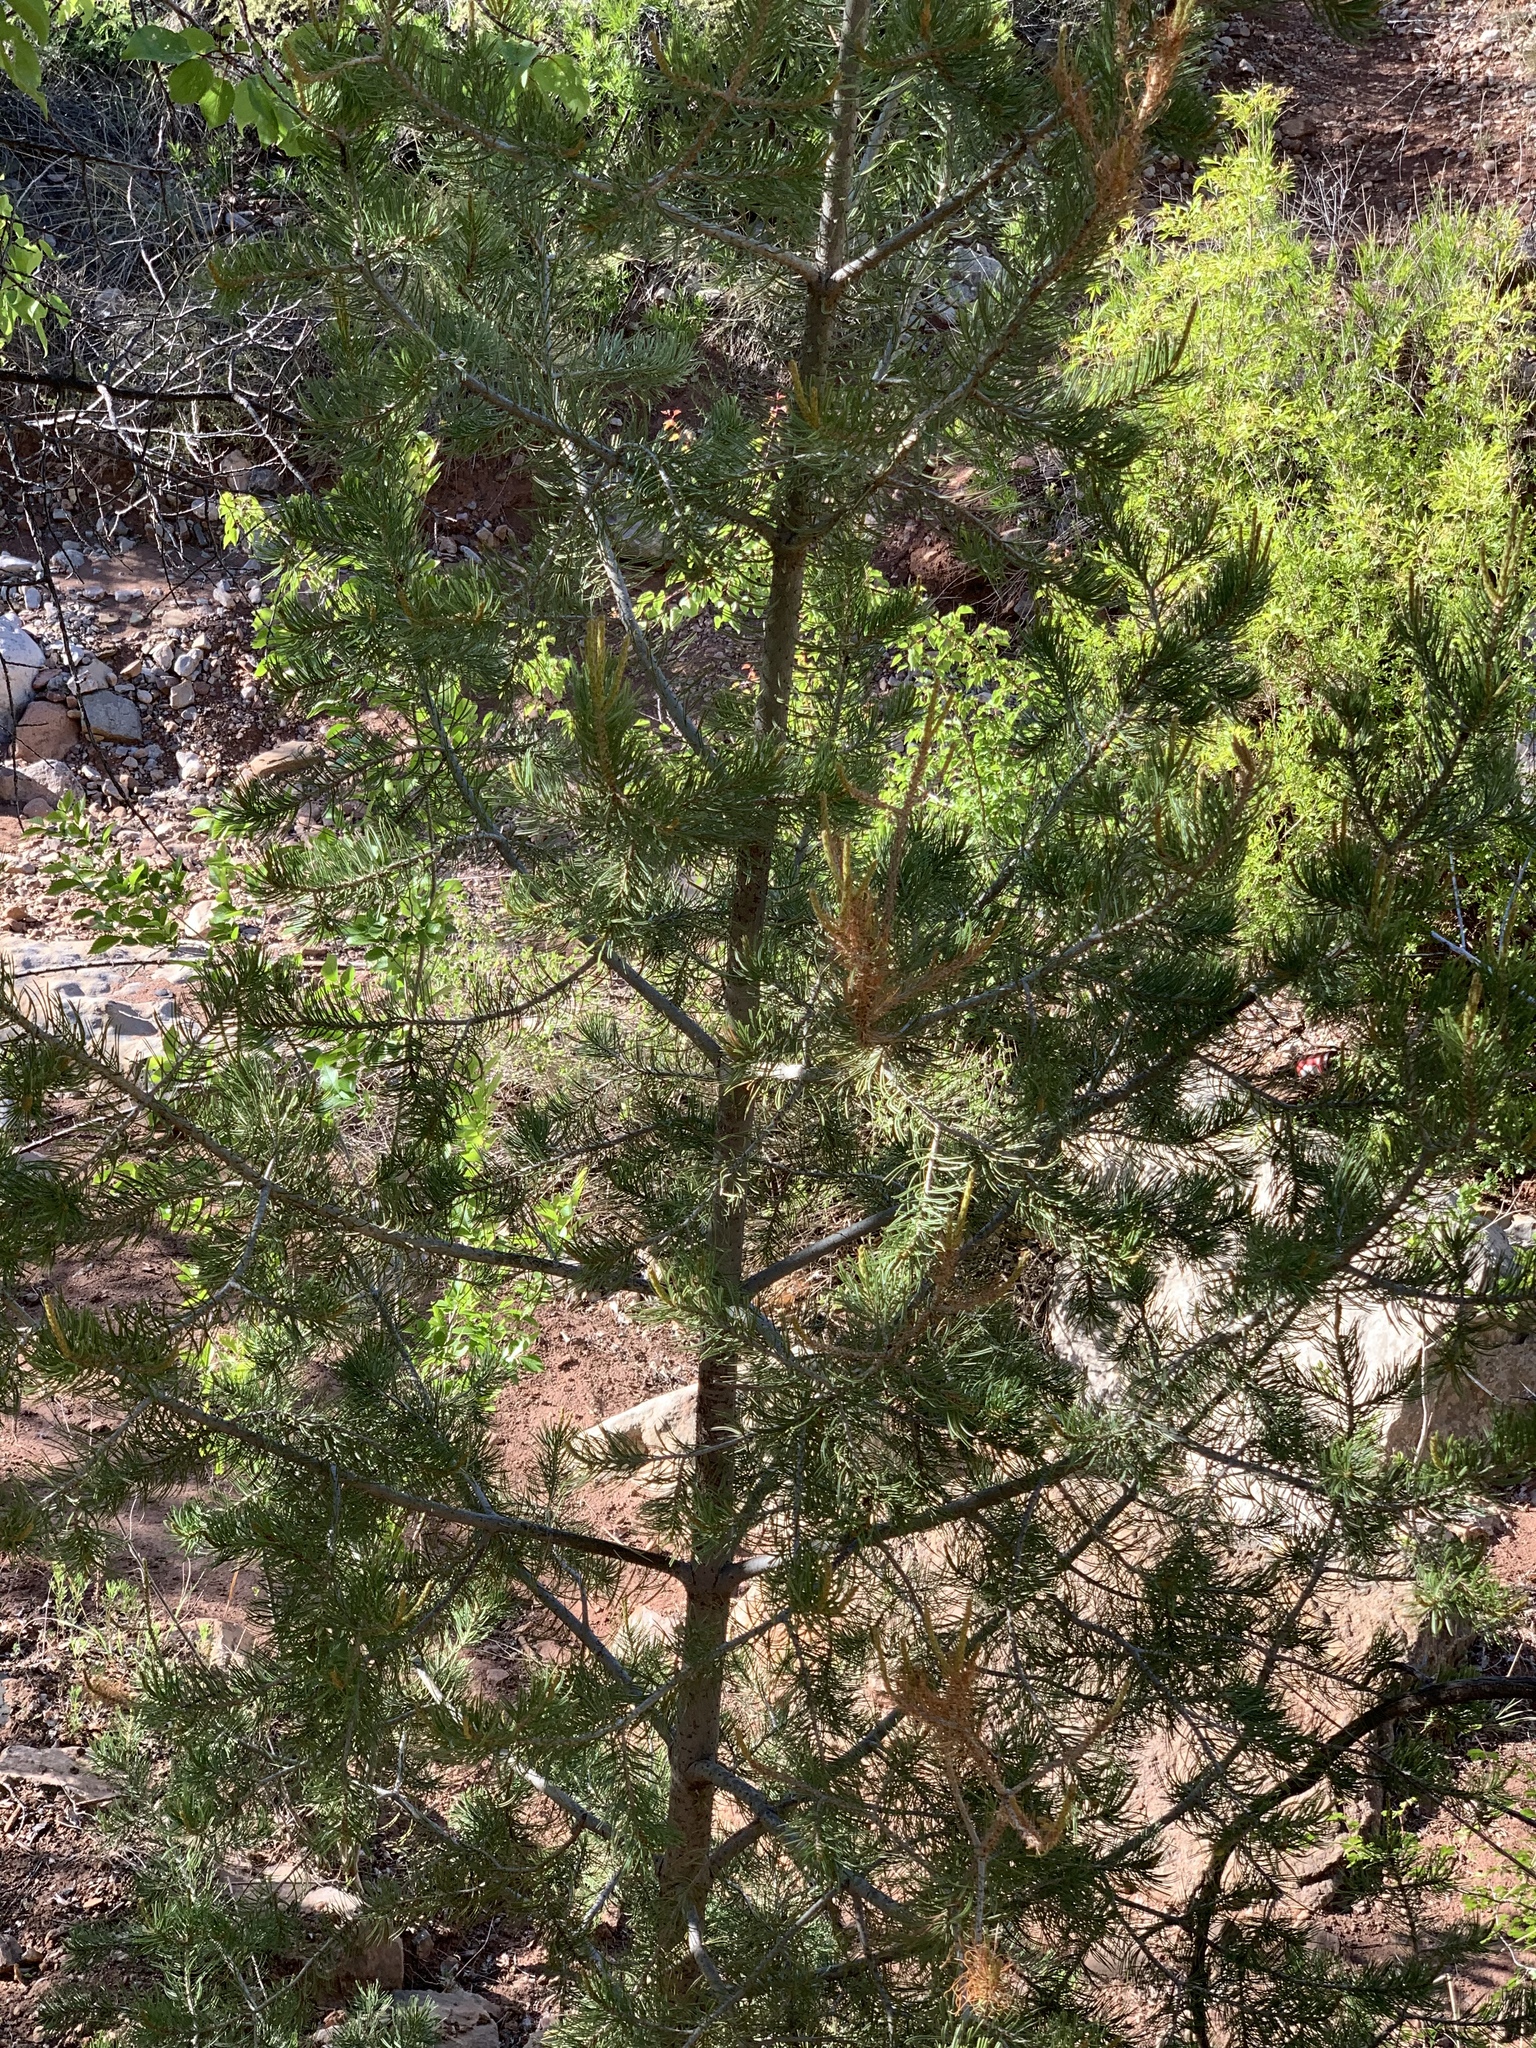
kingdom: Plantae
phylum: Tracheophyta
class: Pinopsida
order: Pinales
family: Pinaceae
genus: Pinus
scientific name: Pinus edulis
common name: Colorado pinyon
